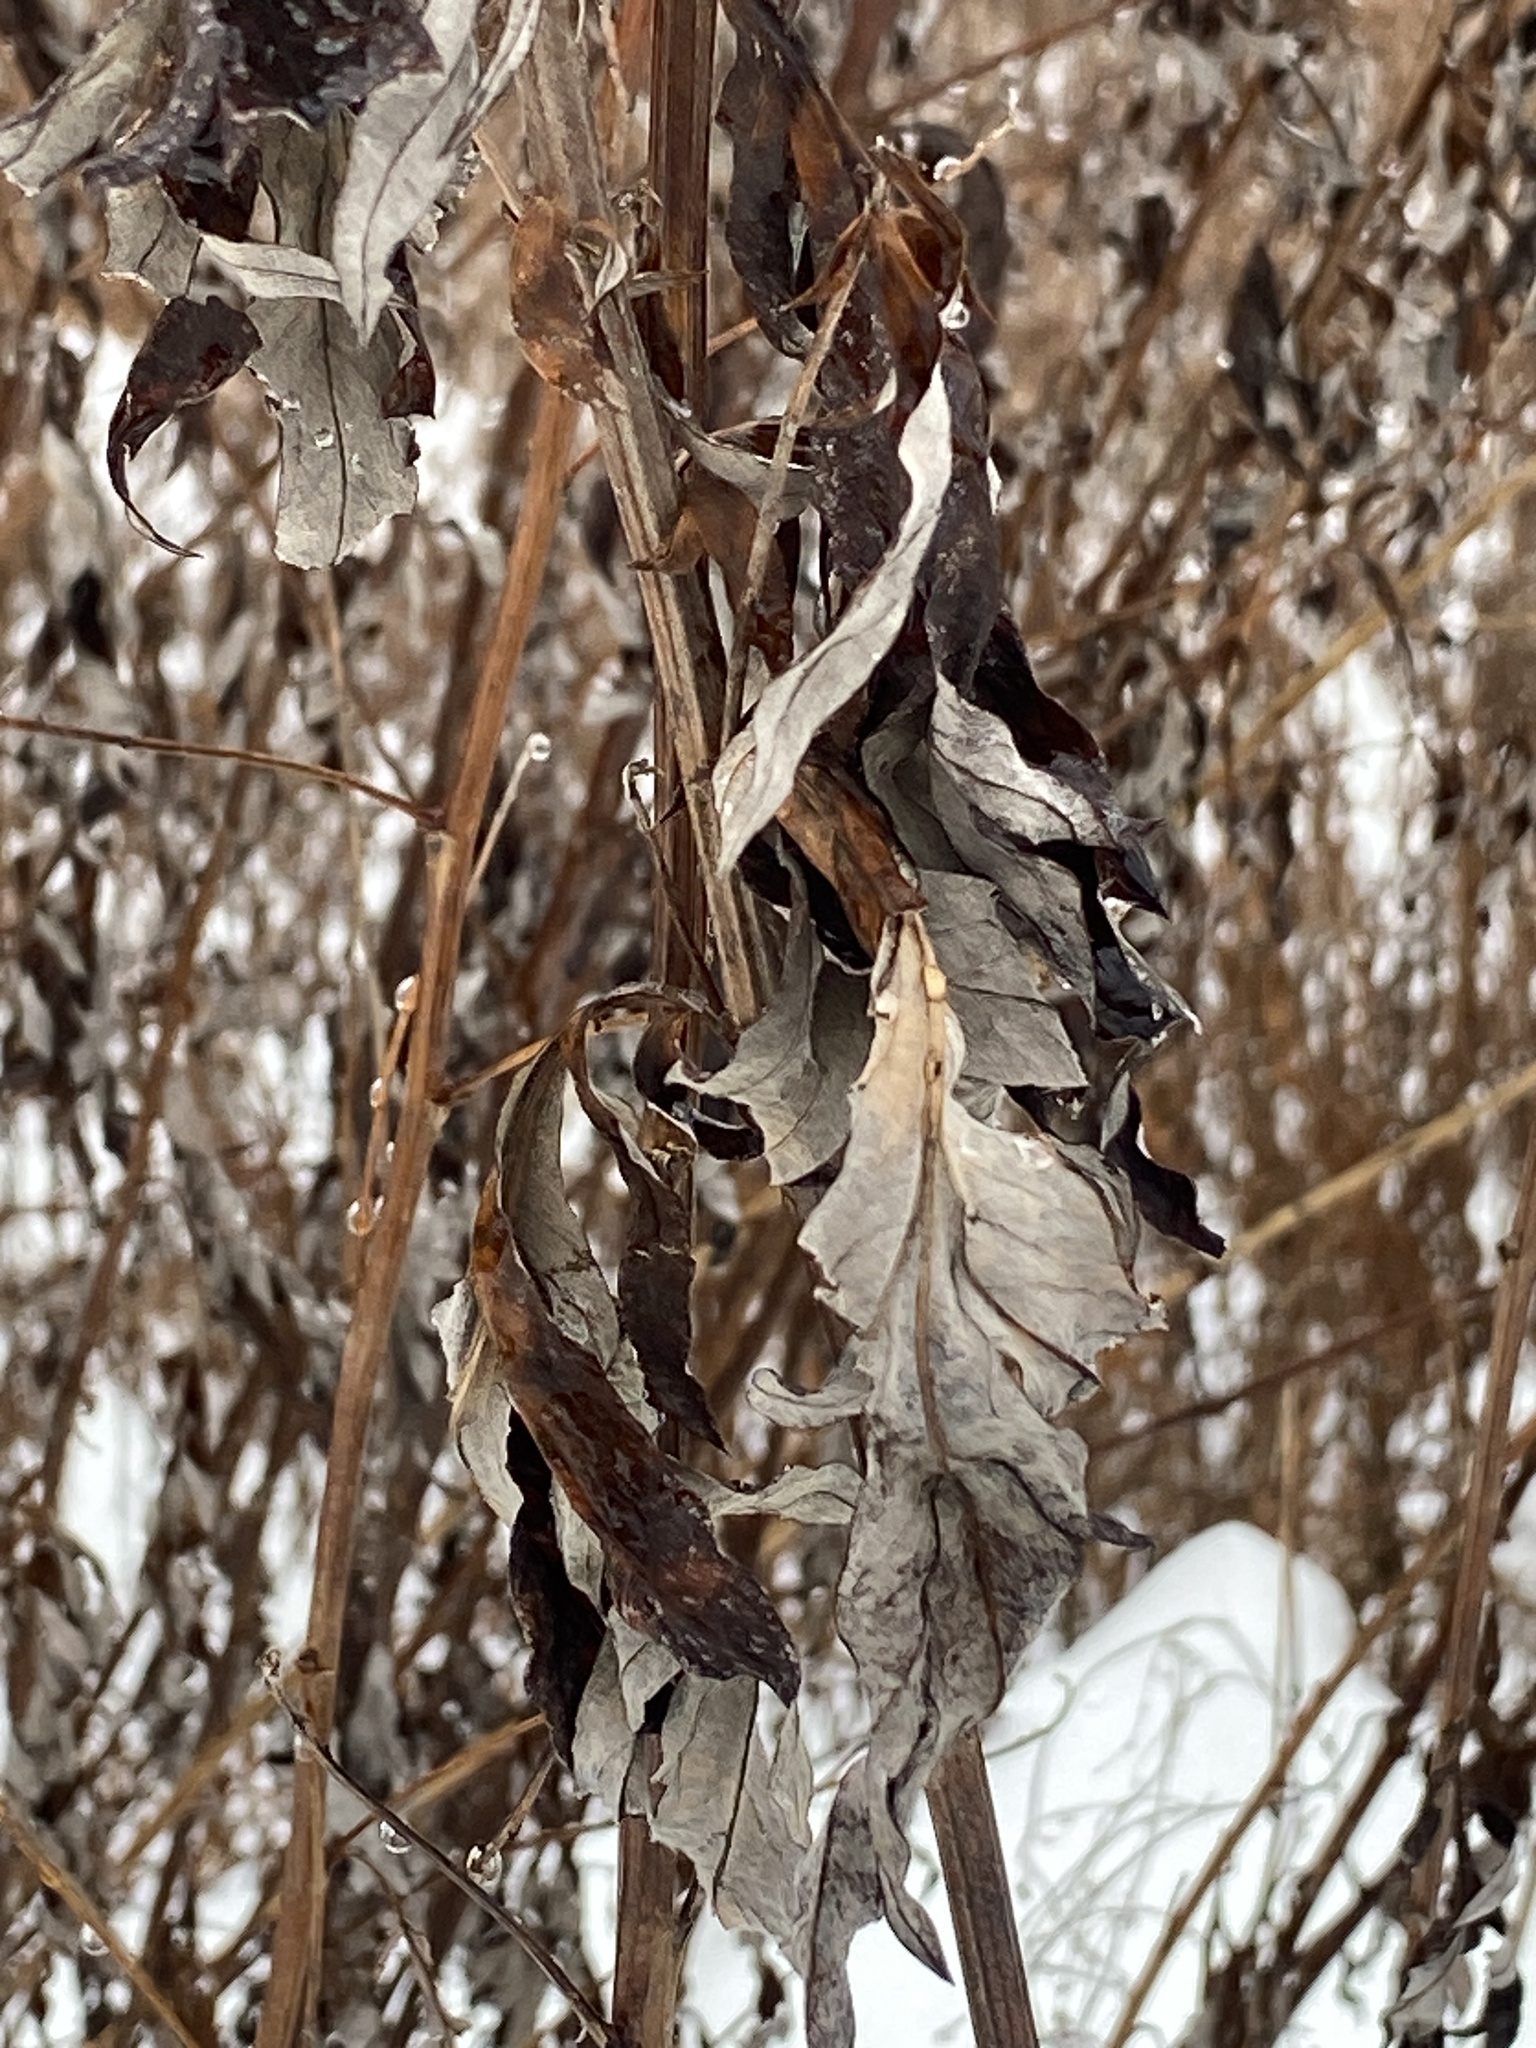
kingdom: Plantae
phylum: Tracheophyta
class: Magnoliopsida
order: Asterales
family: Asteraceae
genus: Artemisia
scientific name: Artemisia vulgaris
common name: Mugwort
